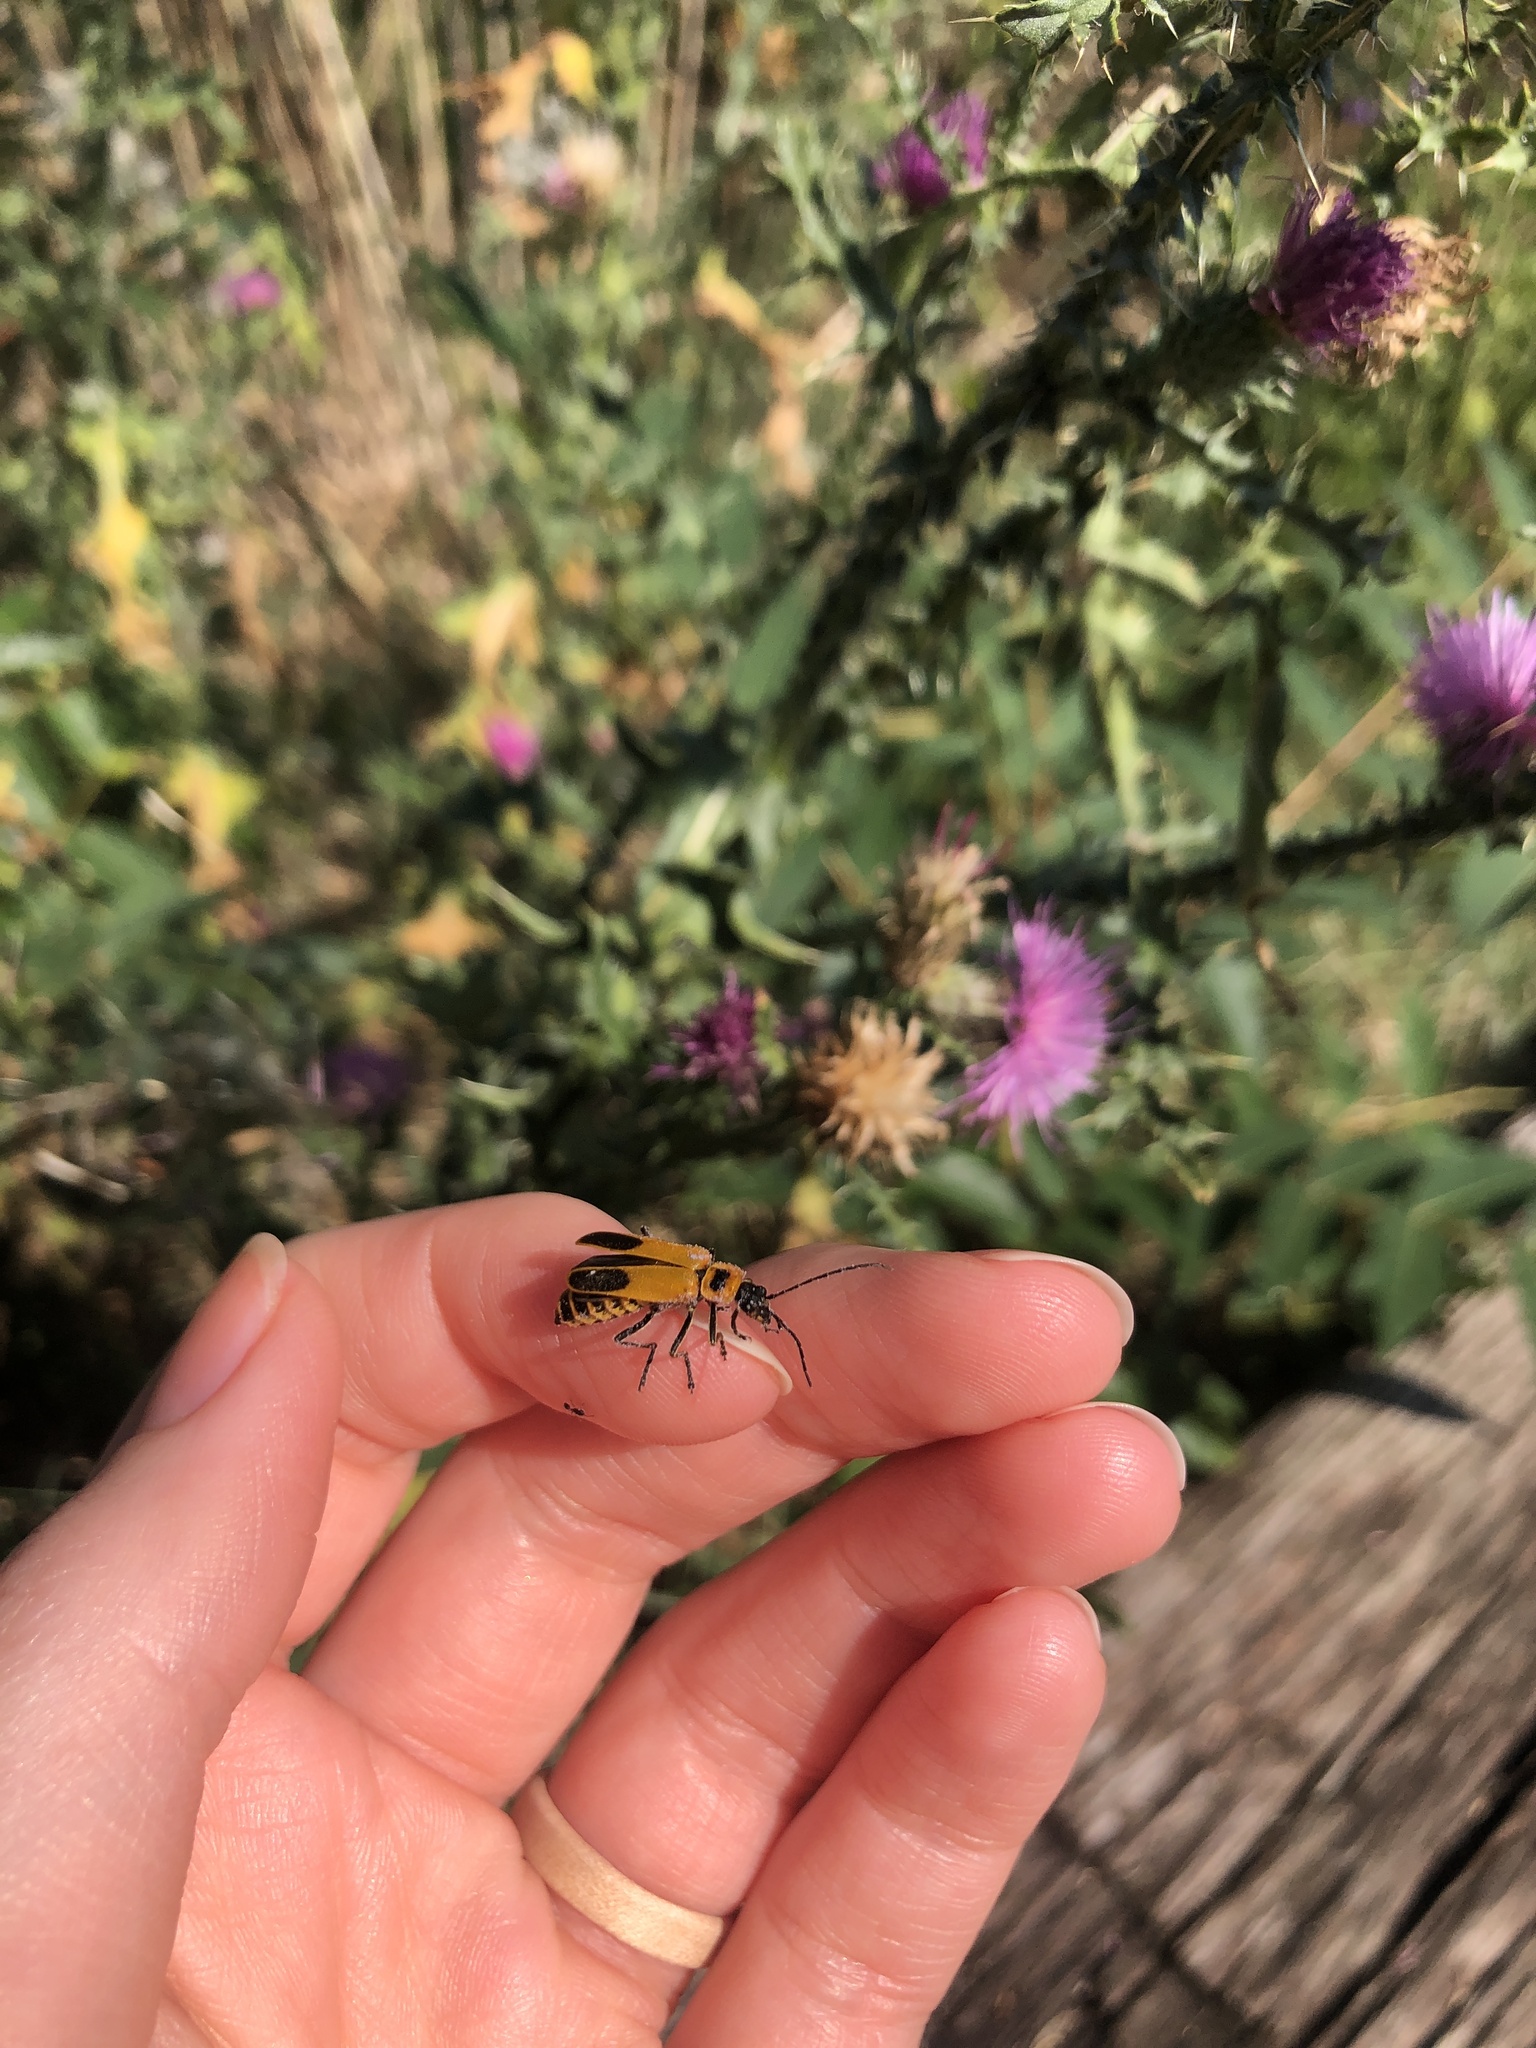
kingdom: Animalia
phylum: Arthropoda
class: Insecta
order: Coleoptera
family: Cantharidae
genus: Chauliognathus
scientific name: Chauliognathus pensylvanicus
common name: Goldenrod soldier beetle
